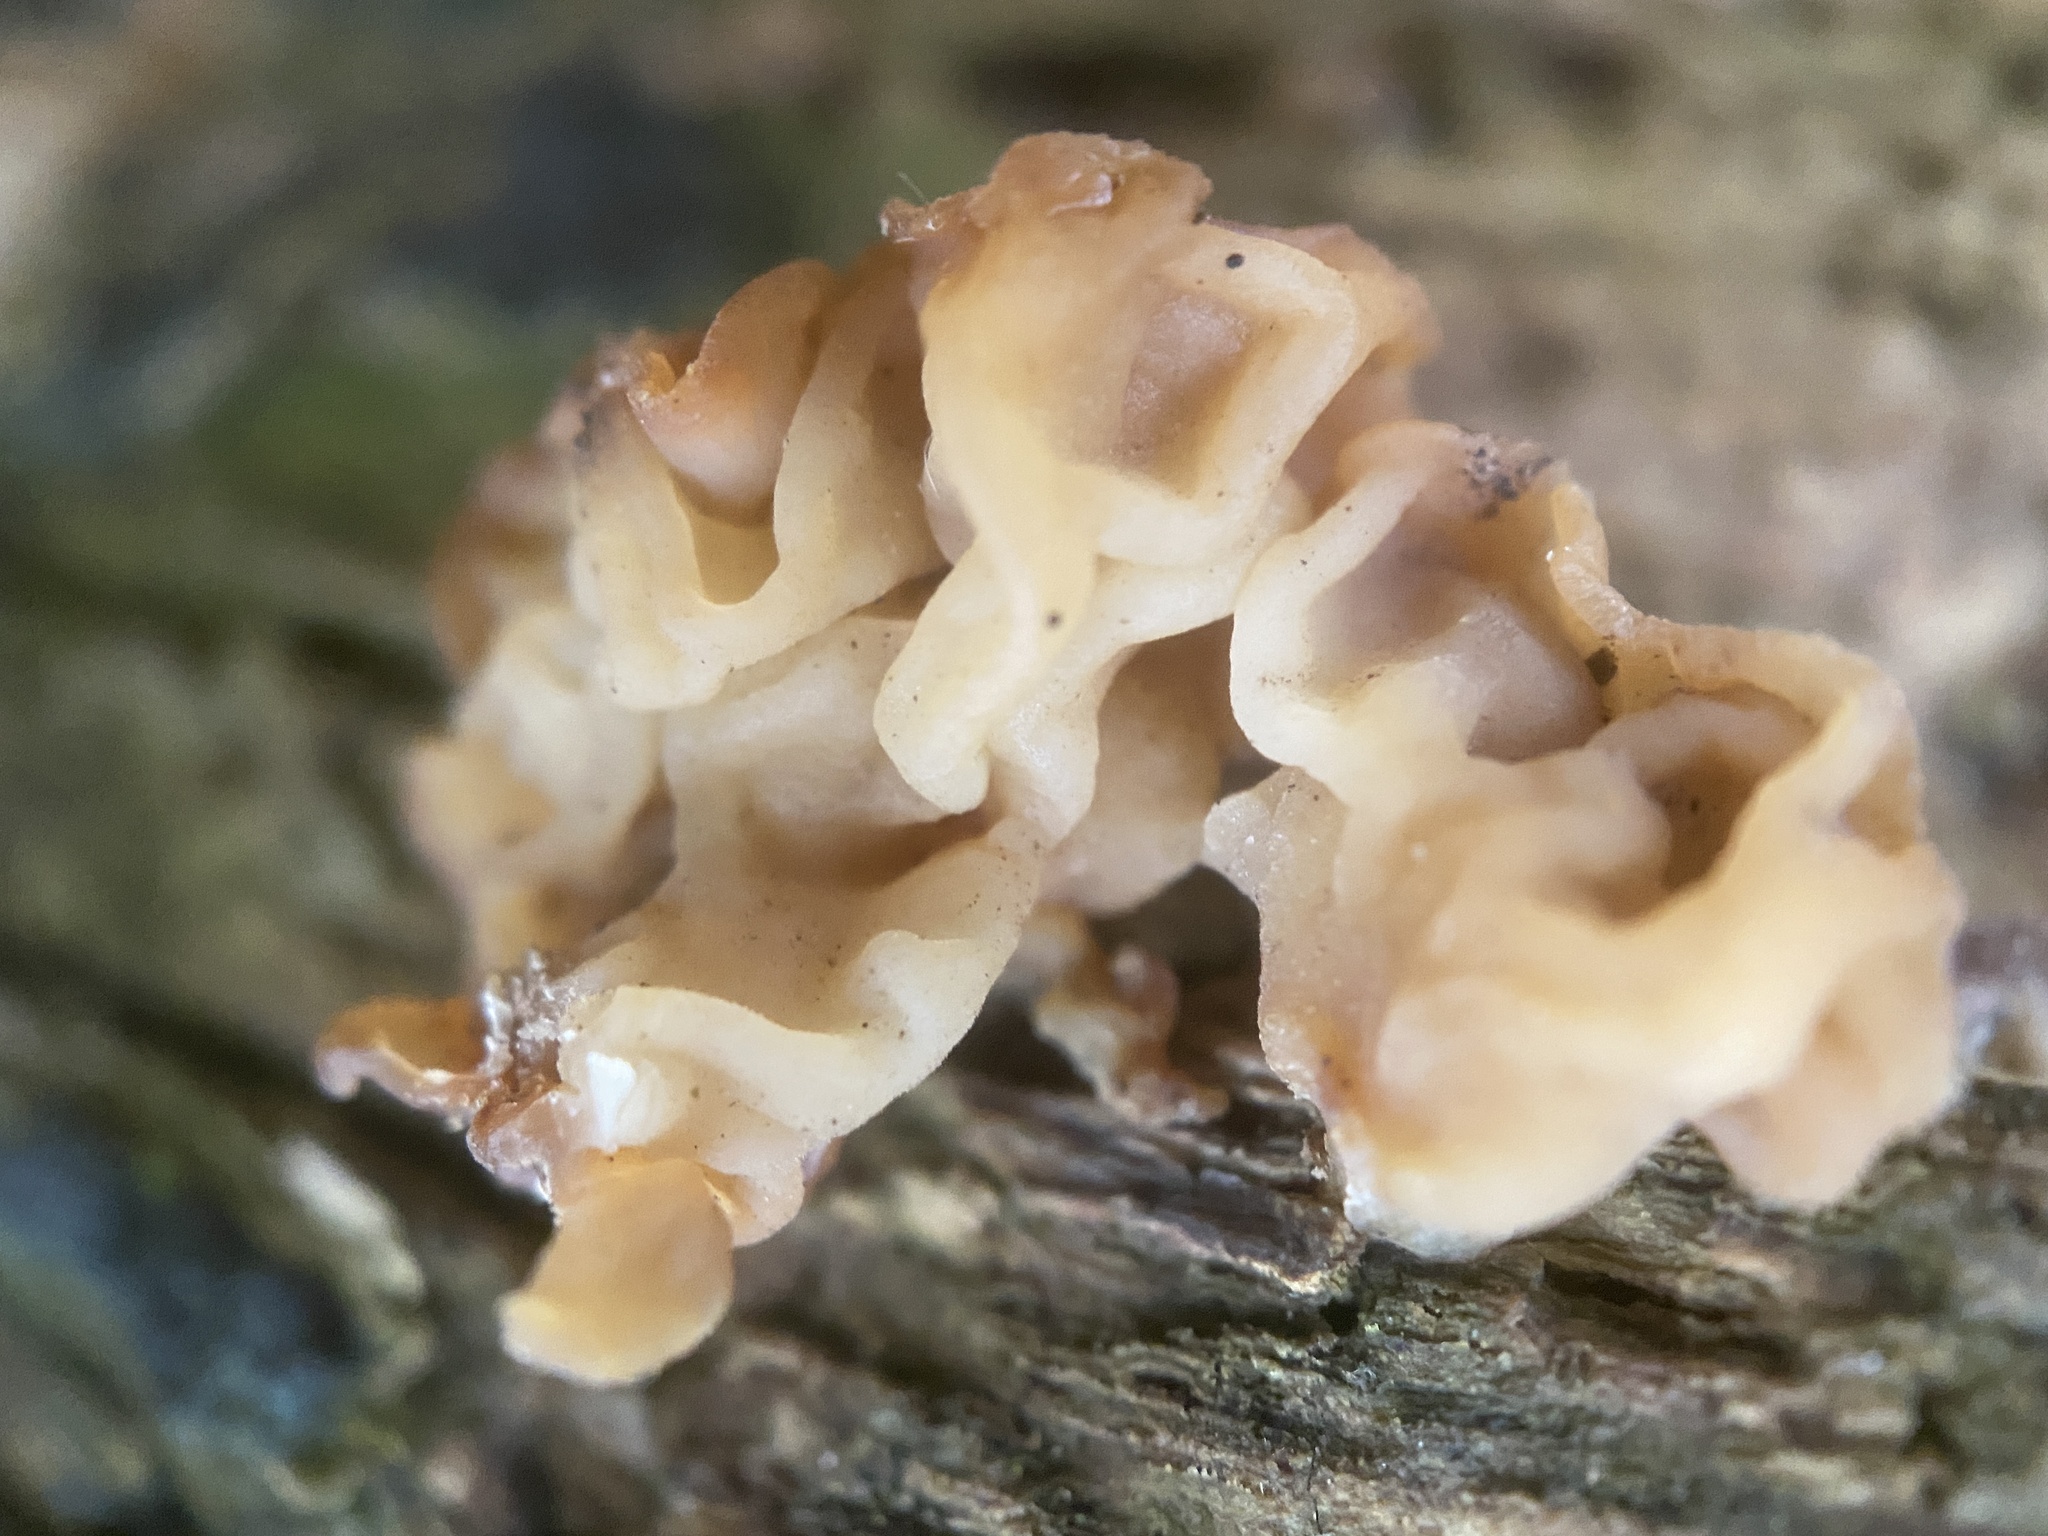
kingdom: Fungi
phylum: Basidiomycota
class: Agaricomycetes
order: Auriculariales
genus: Ductifera
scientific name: Ductifera pululahuana
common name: White jelly fungus
